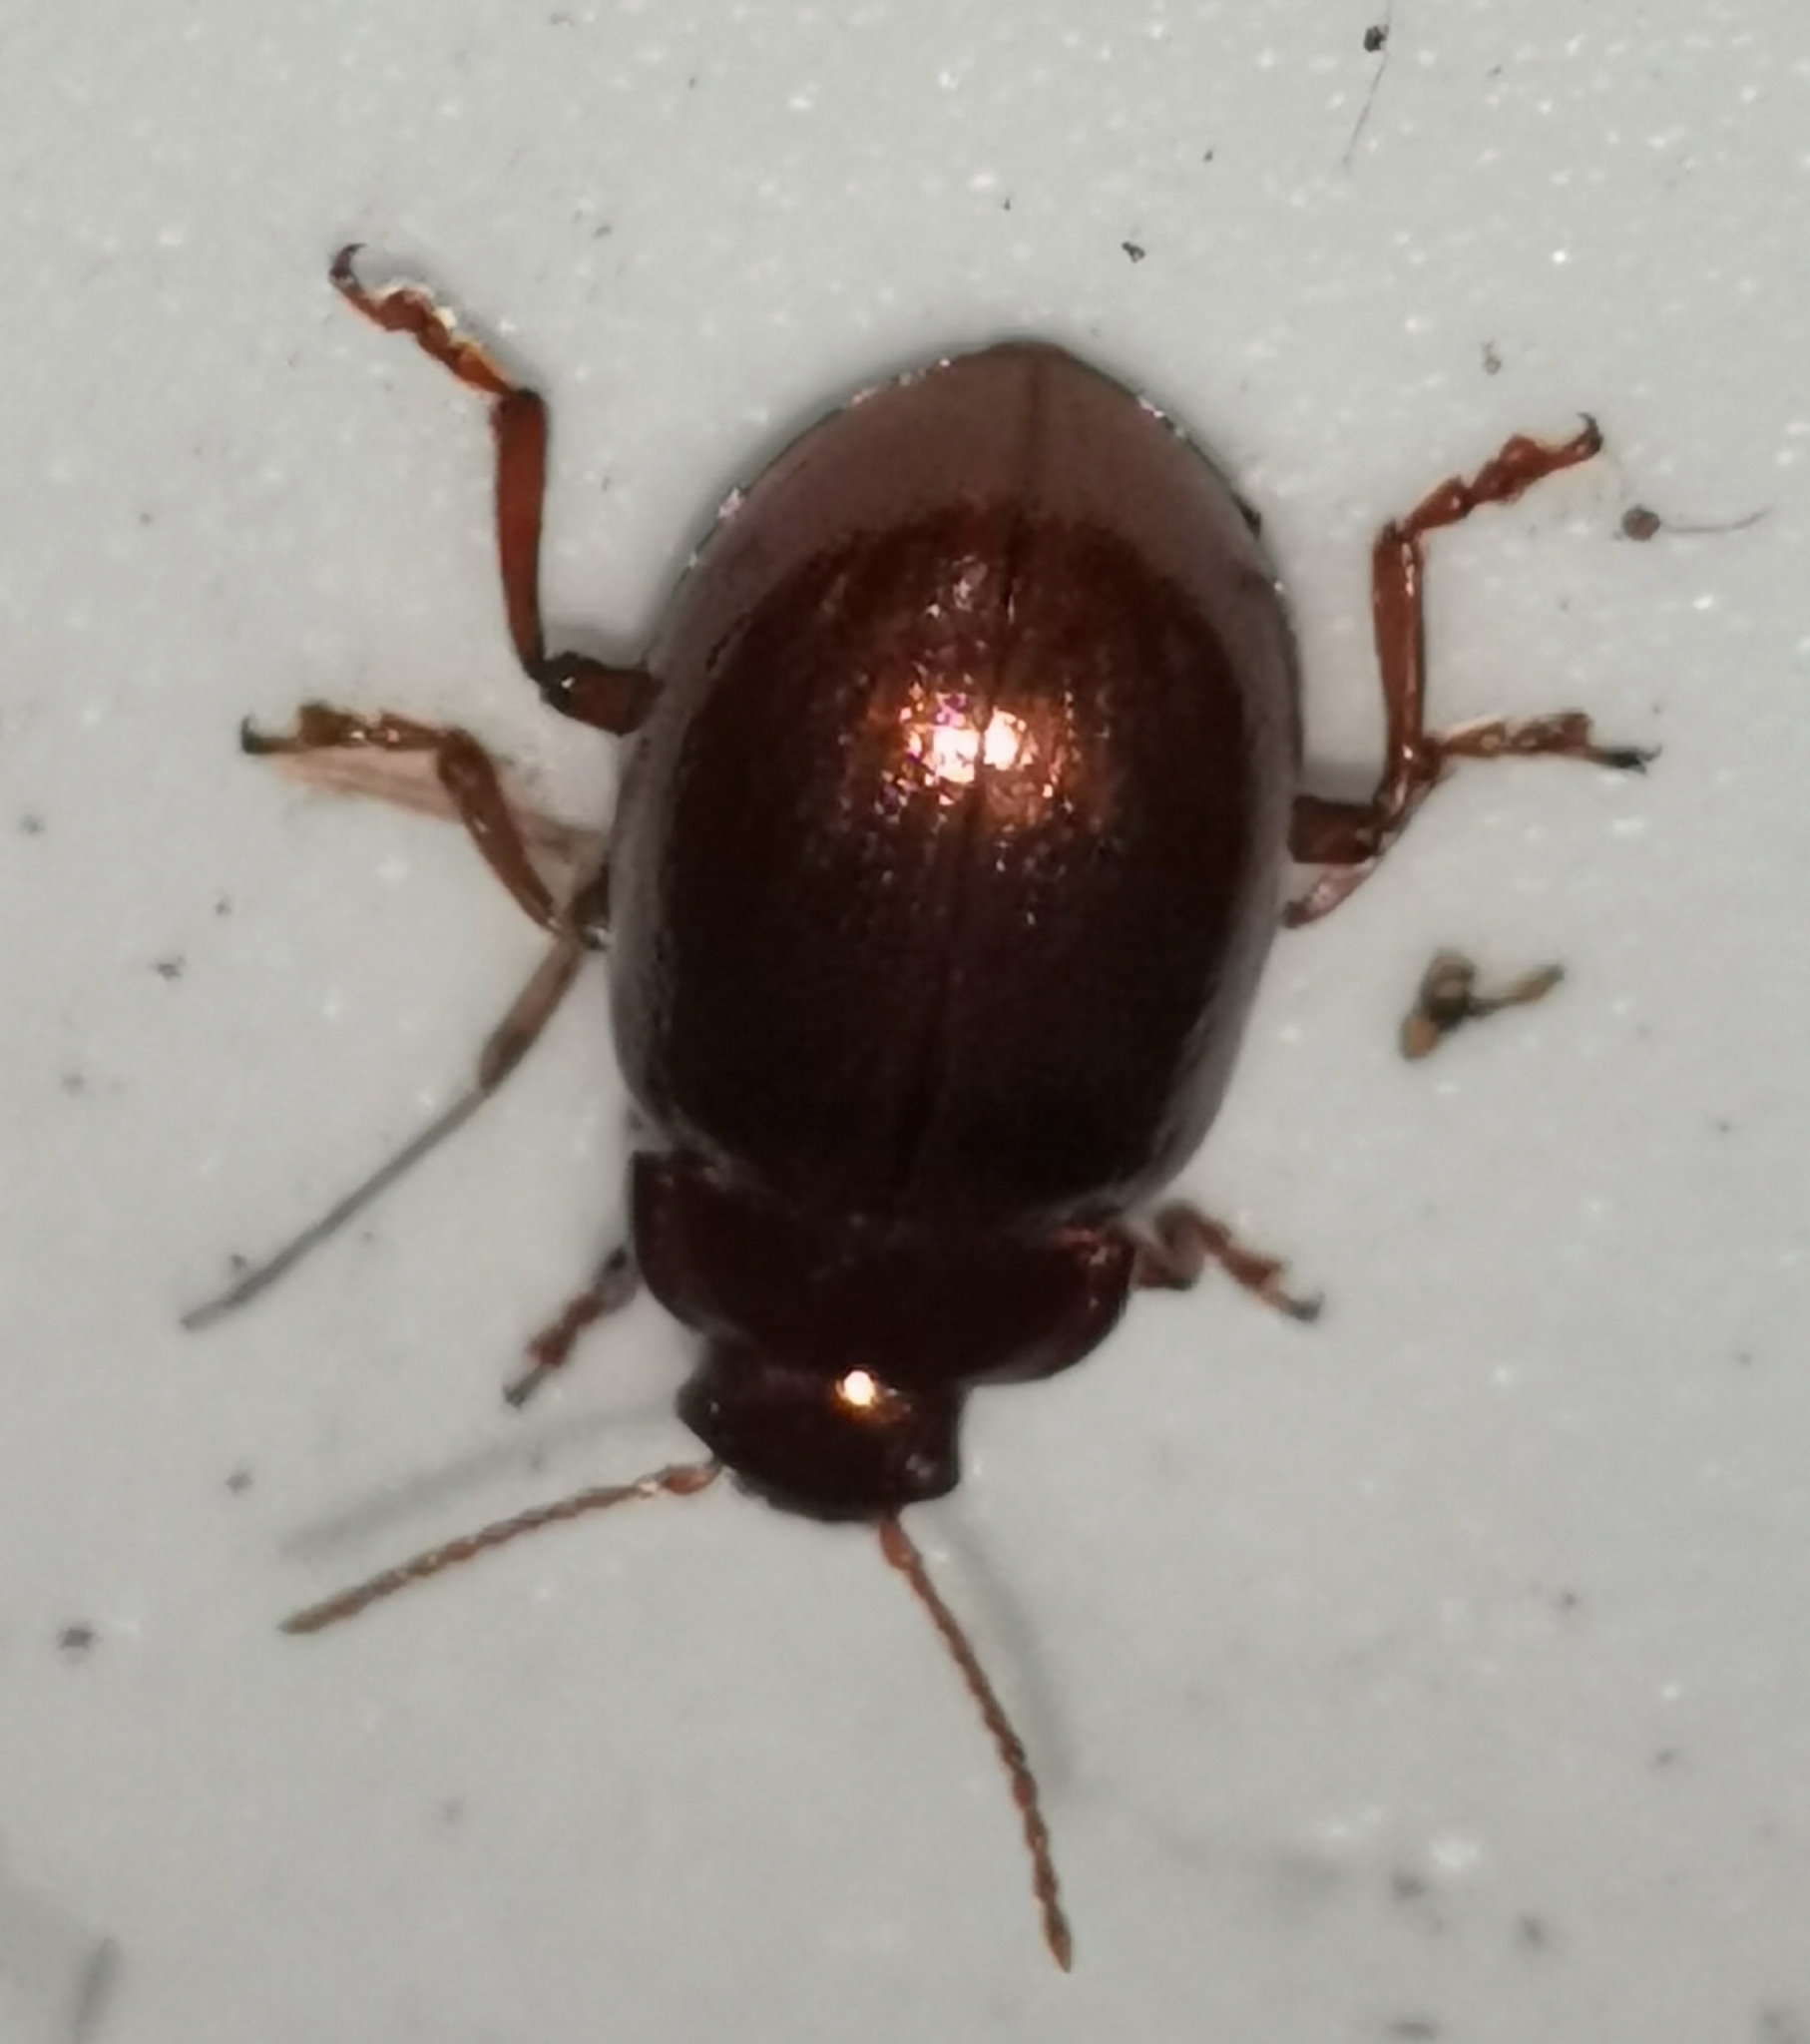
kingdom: Animalia
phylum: Arthropoda
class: Insecta
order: Coleoptera
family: Chrysomelidae
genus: Chrysolina
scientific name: Chrysolina staphylaea
